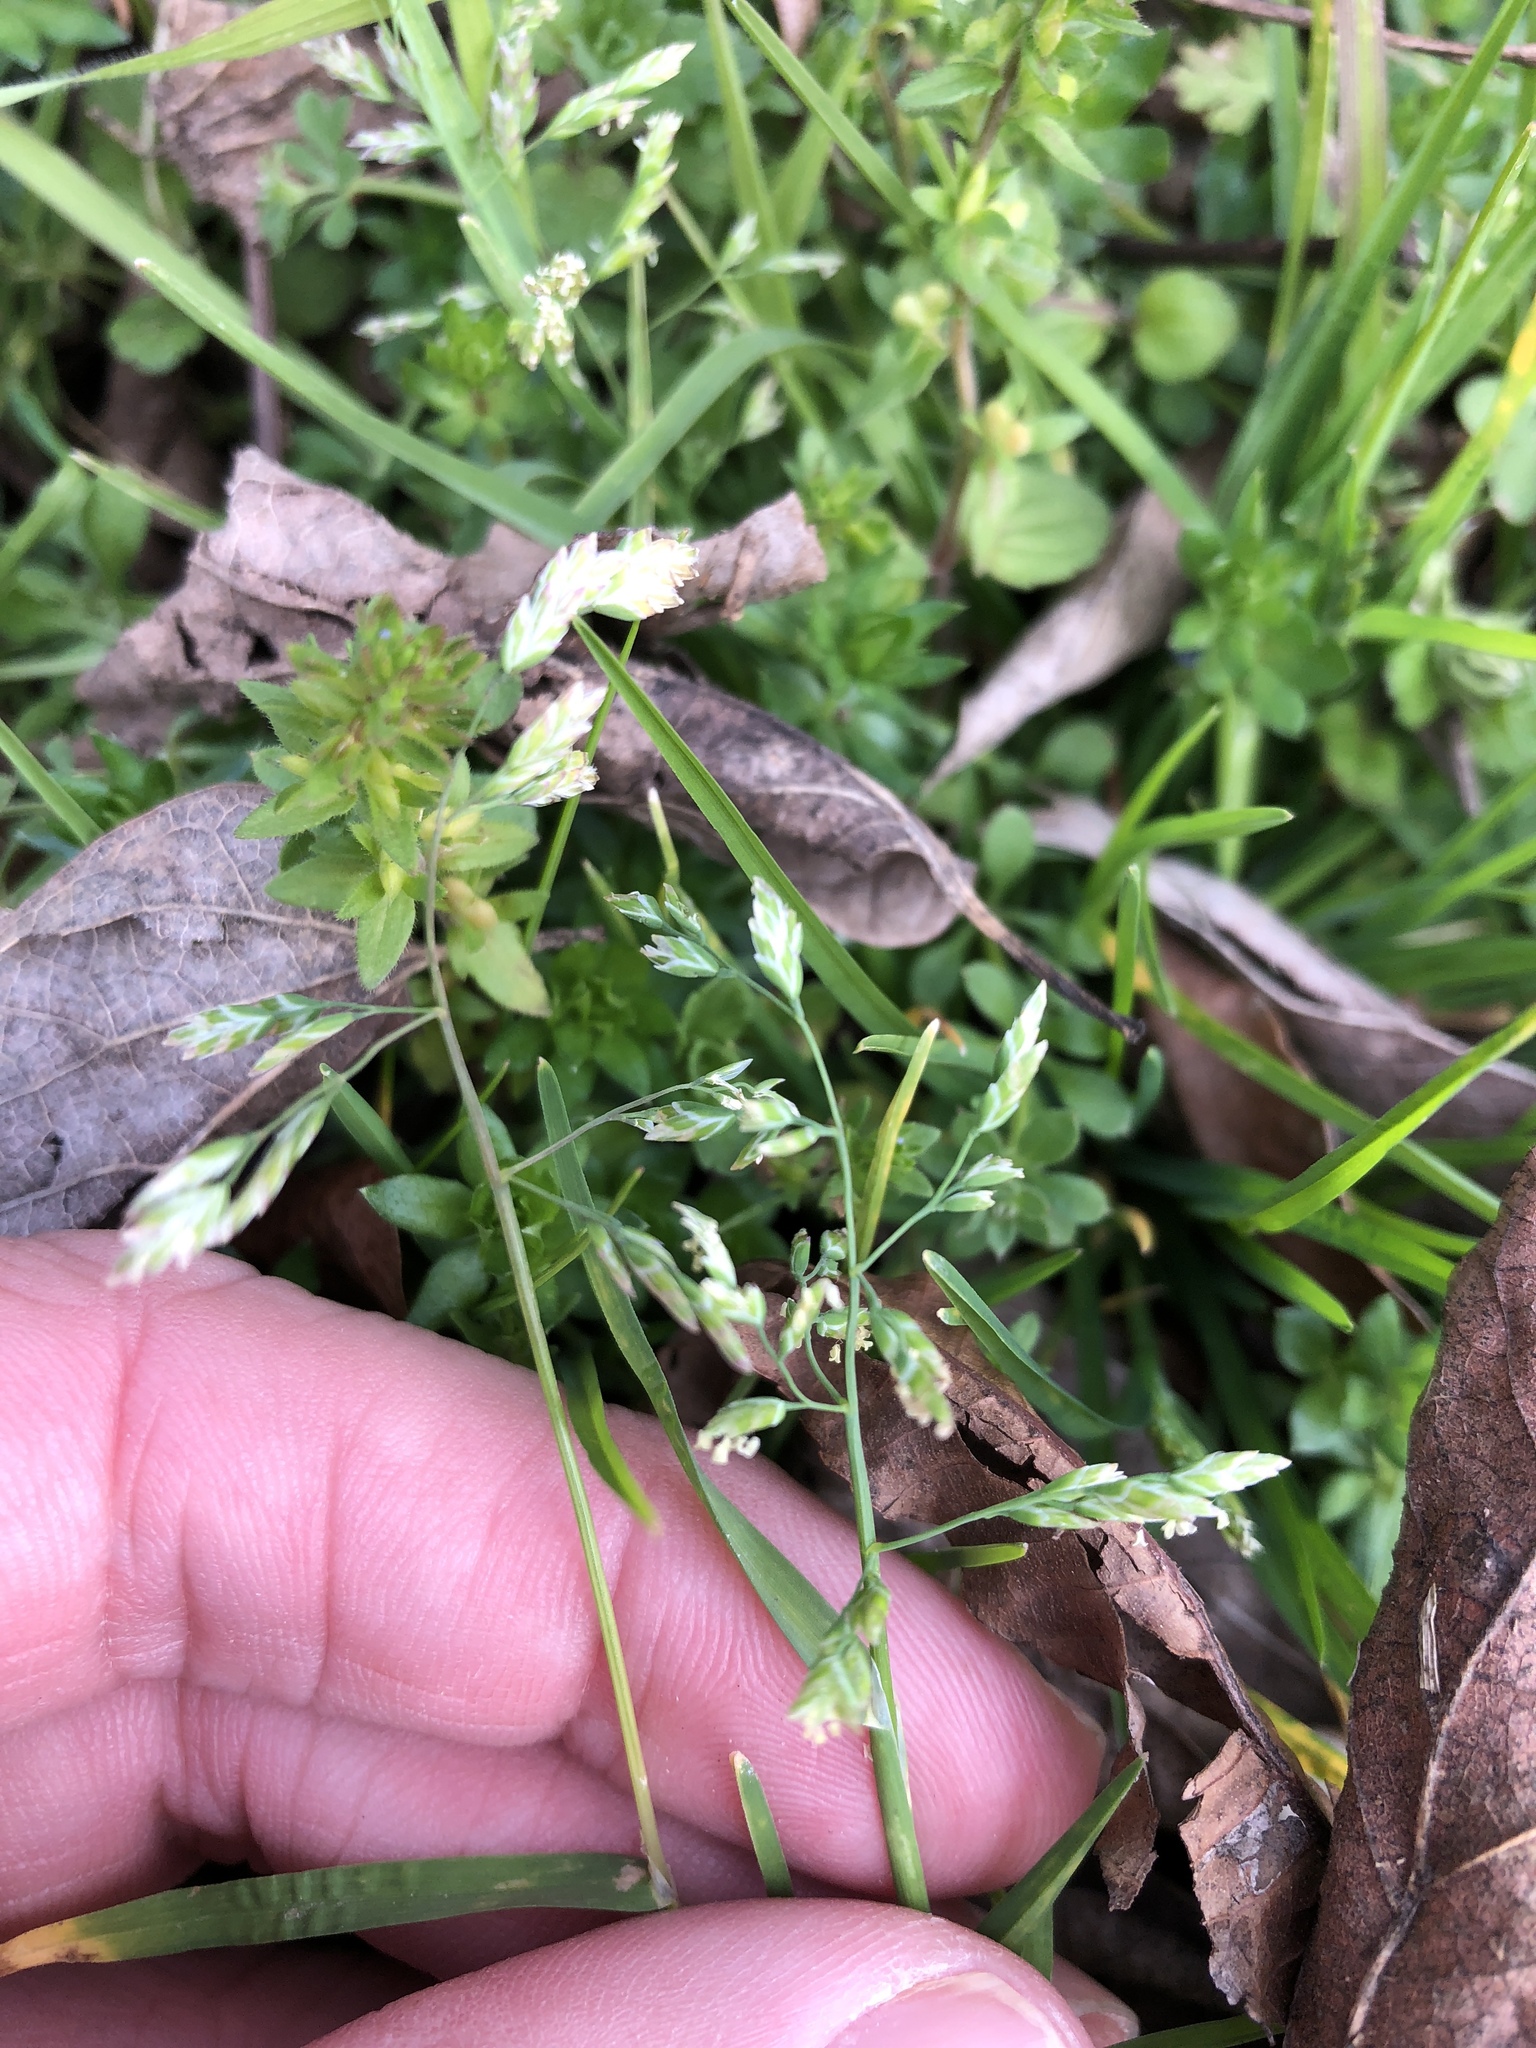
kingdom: Plantae
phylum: Tracheophyta
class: Liliopsida
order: Poales
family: Poaceae
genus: Poa
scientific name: Poa annua
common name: Annual bluegrass
